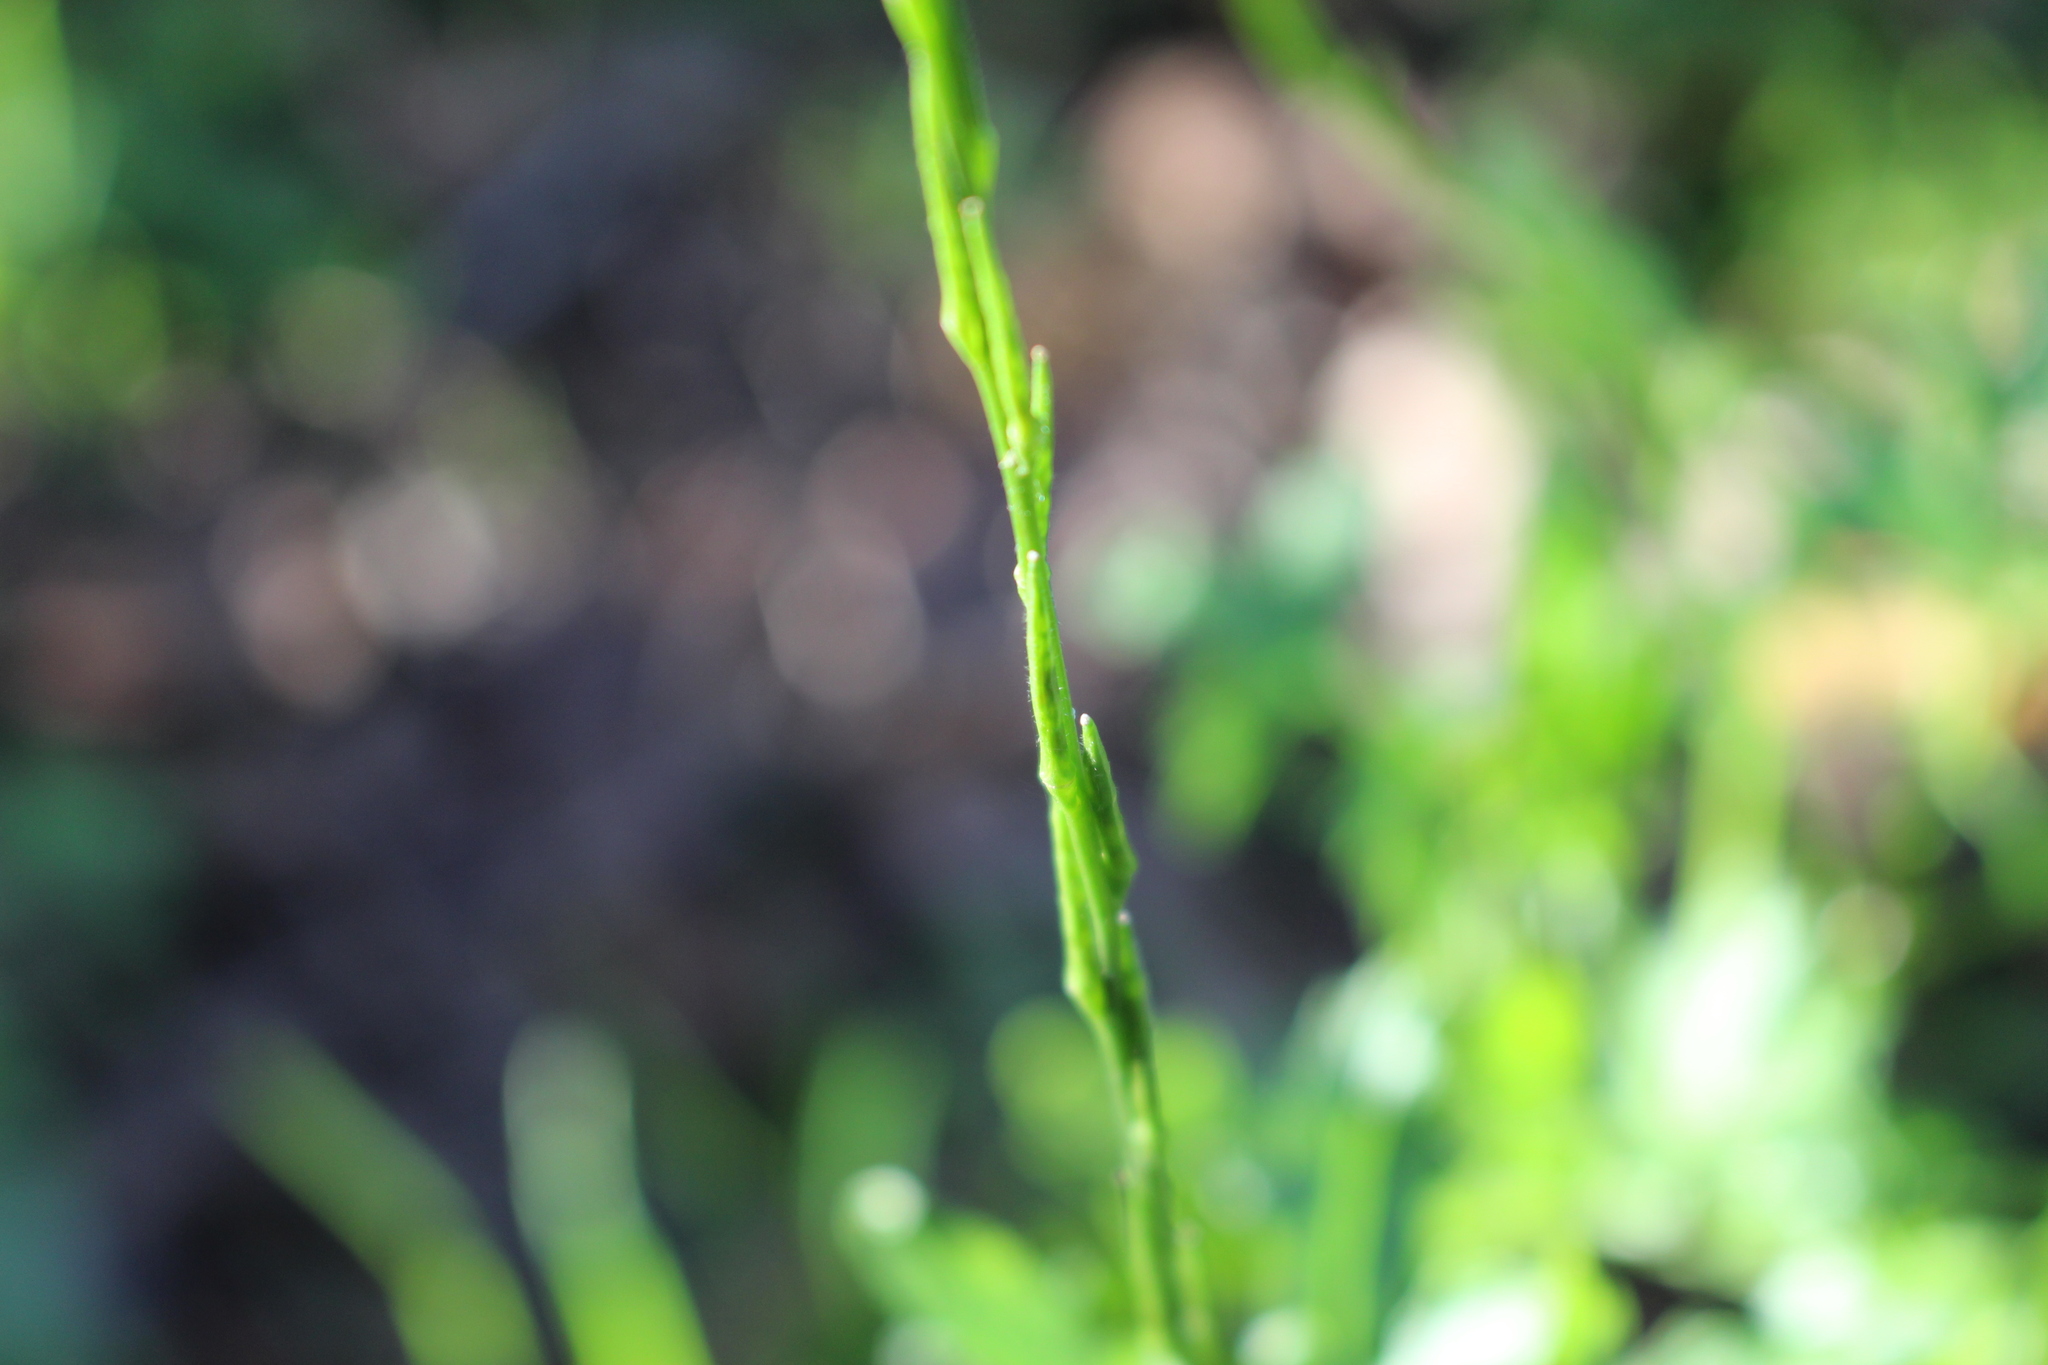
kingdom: Plantae
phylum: Tracheophyta
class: Magnoliopsida
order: Brassicales
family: Brassicaceae
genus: Sisymbrium
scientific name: Sisymbrium officinale
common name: Hedge mustard
